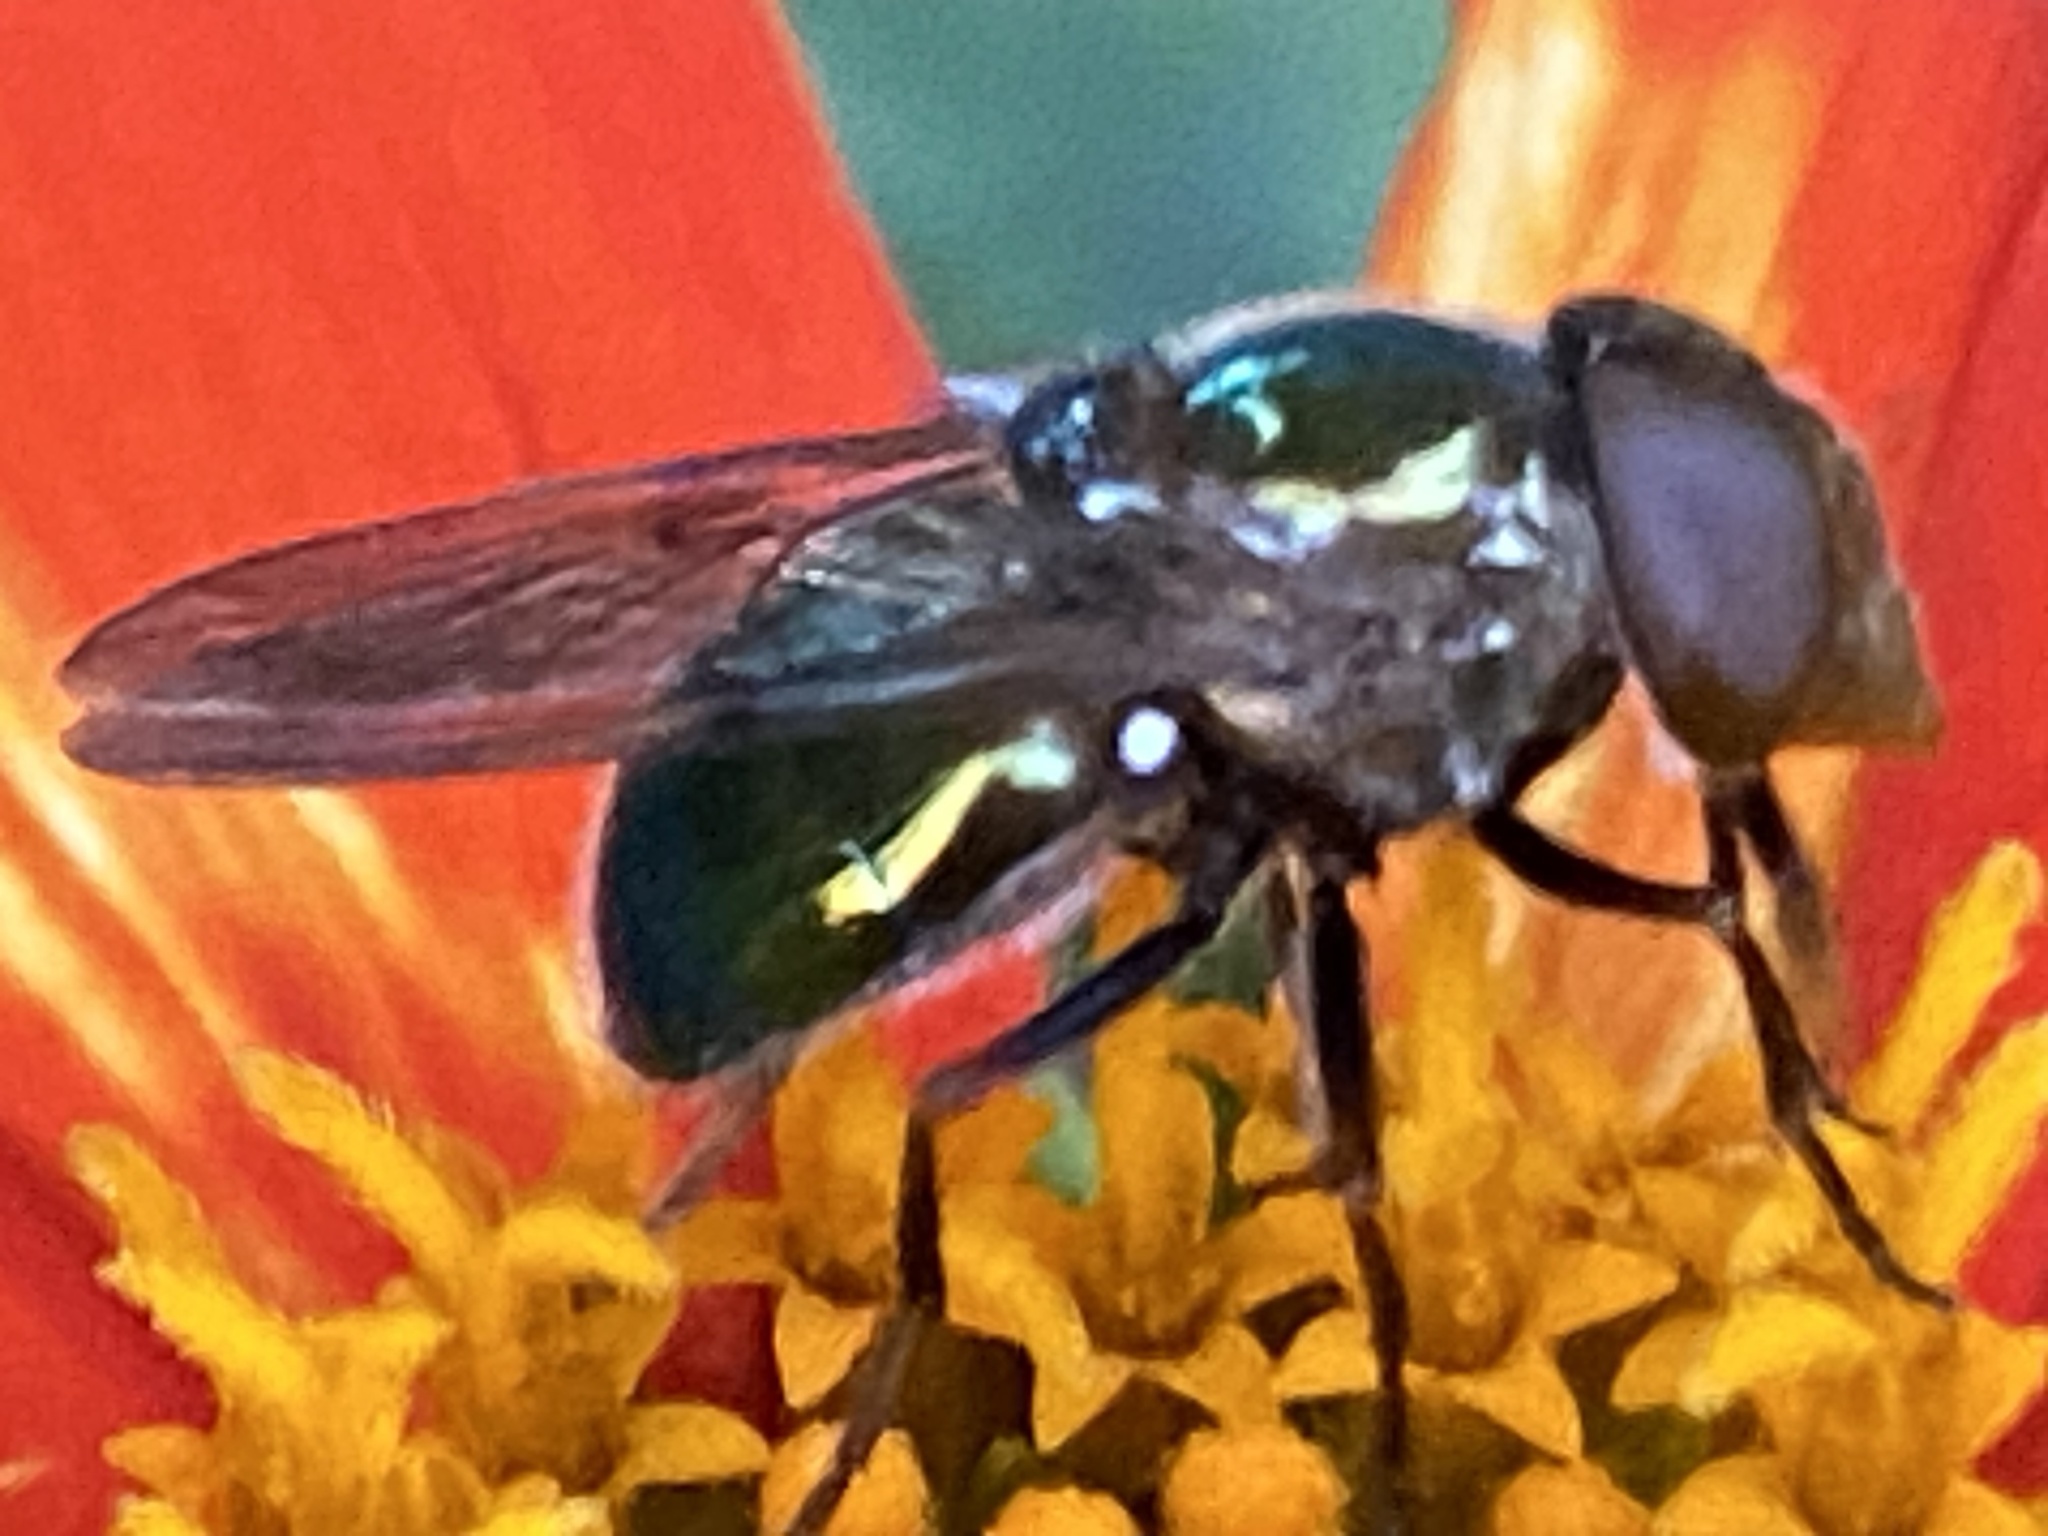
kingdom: Animalia
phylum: Arthropoda
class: Insecta
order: Diptera
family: Syrphidae
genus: Copestylum
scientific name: Copestylum barei
